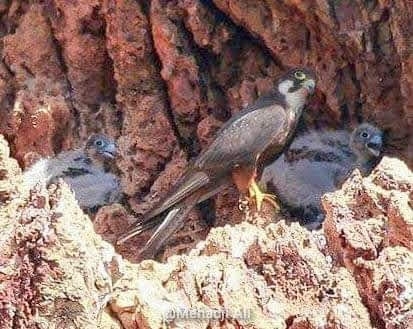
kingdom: Animalia
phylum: Chordata
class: Aves
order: Falconiformes
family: Falconidae
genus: Falco
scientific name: Falco eleonorae
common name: Eleonora's falcon
